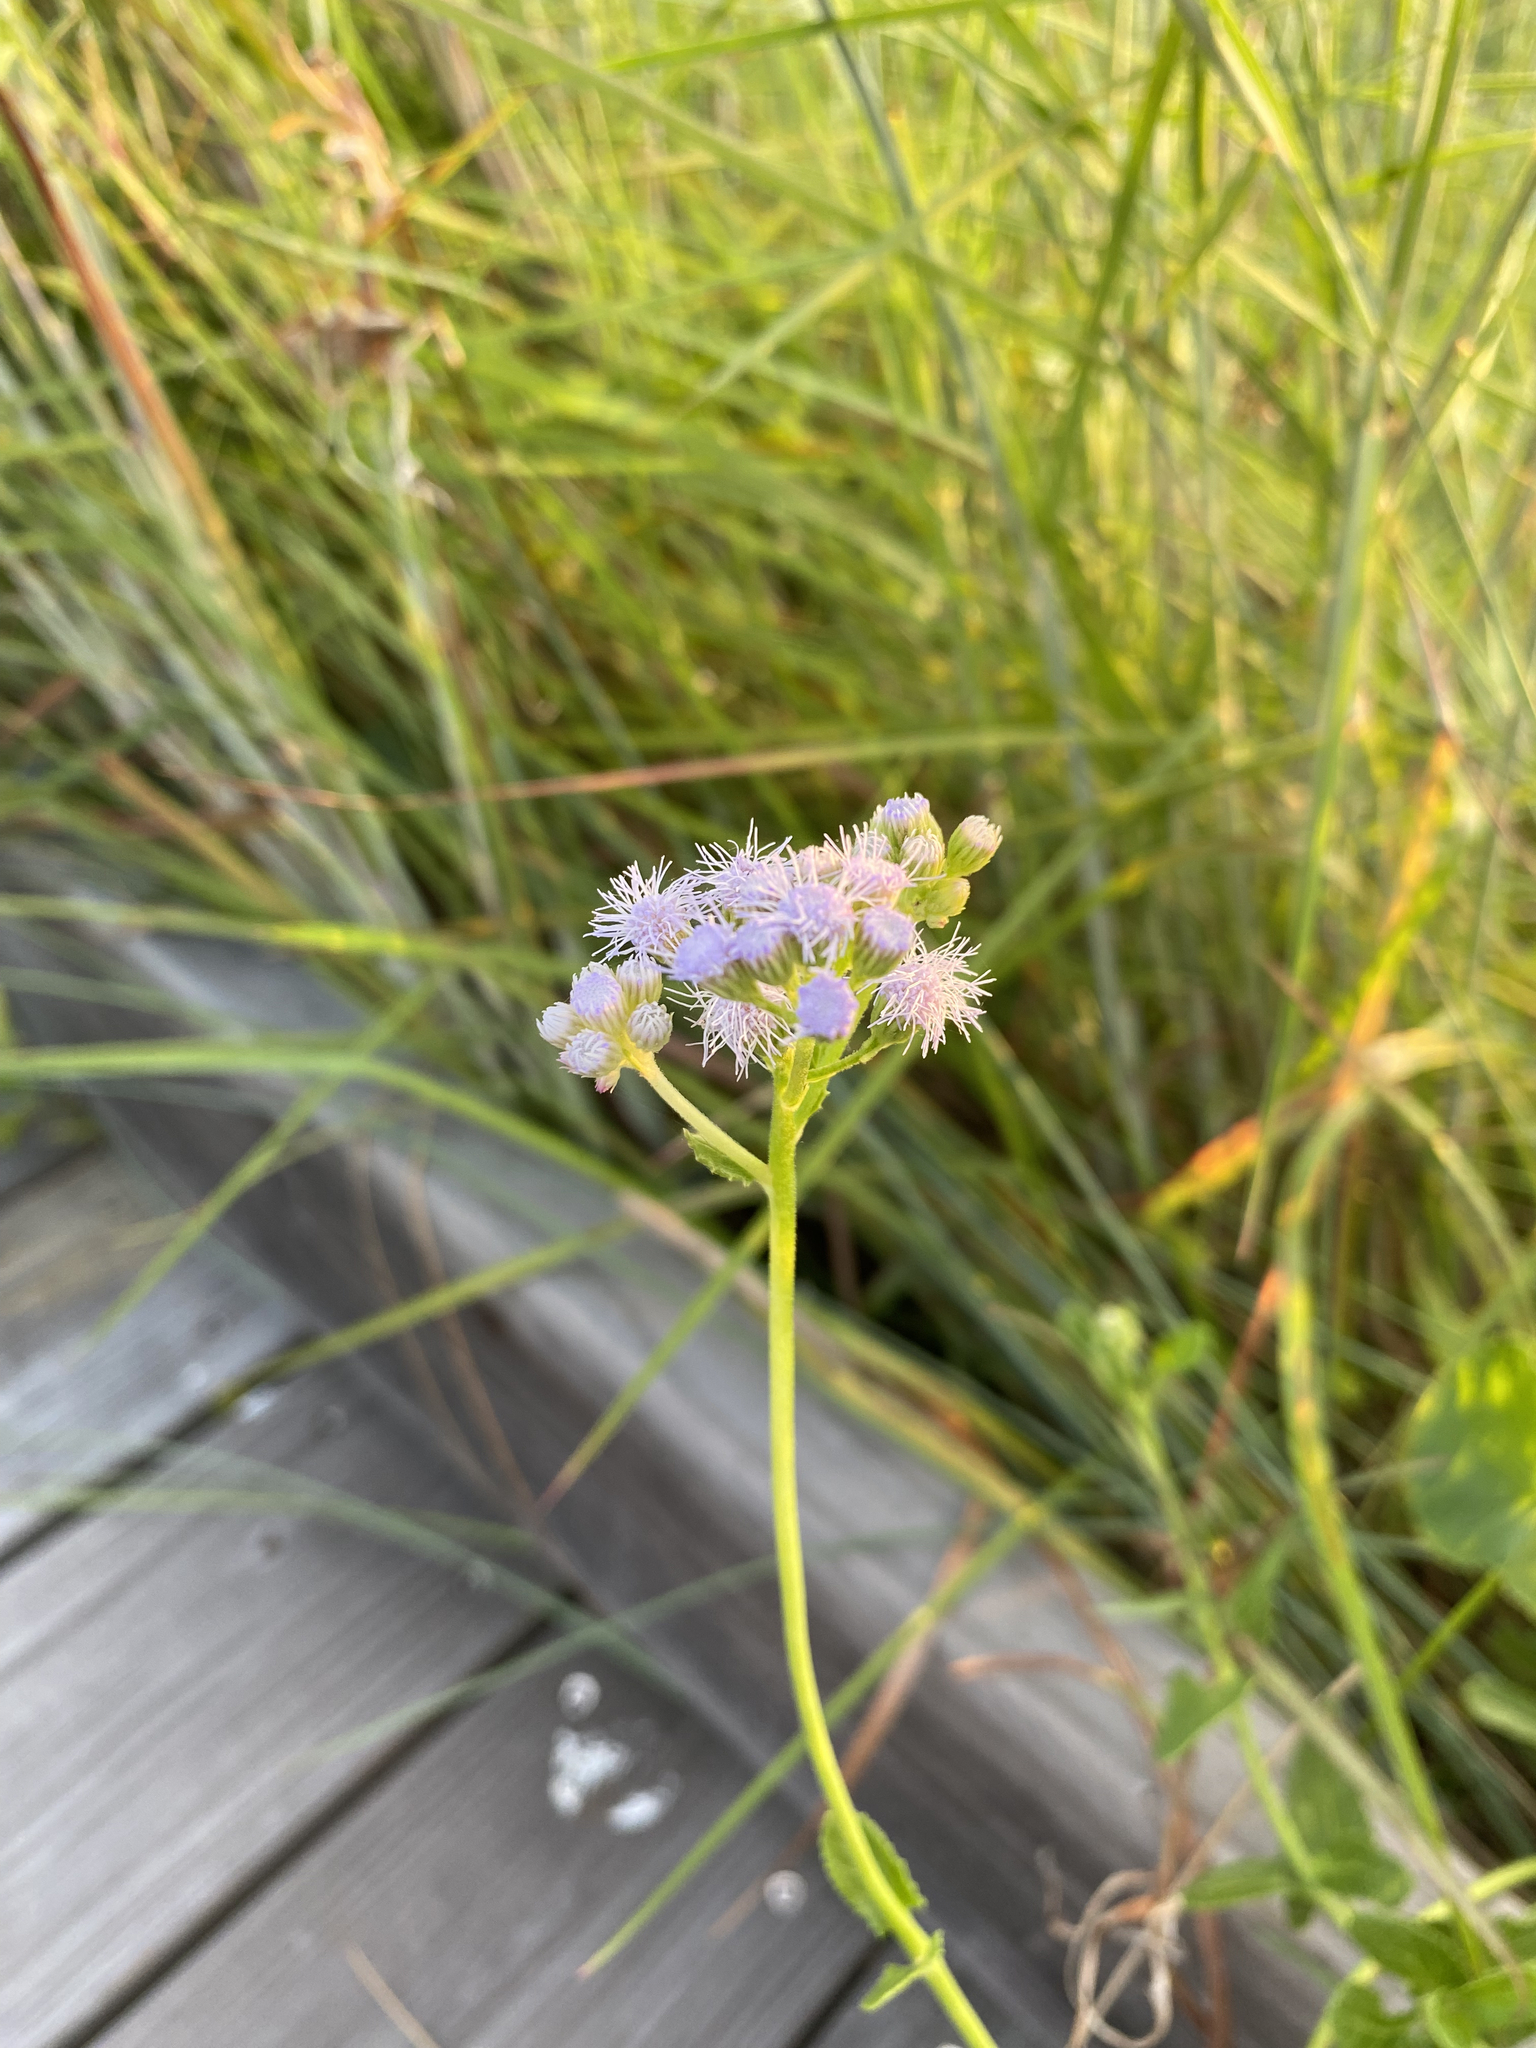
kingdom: Plantae
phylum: Tracheophyta
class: Magnoliopsida
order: Asterales
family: Asteraceae
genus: Conoclinium
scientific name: Conoclinium betonicifolium
